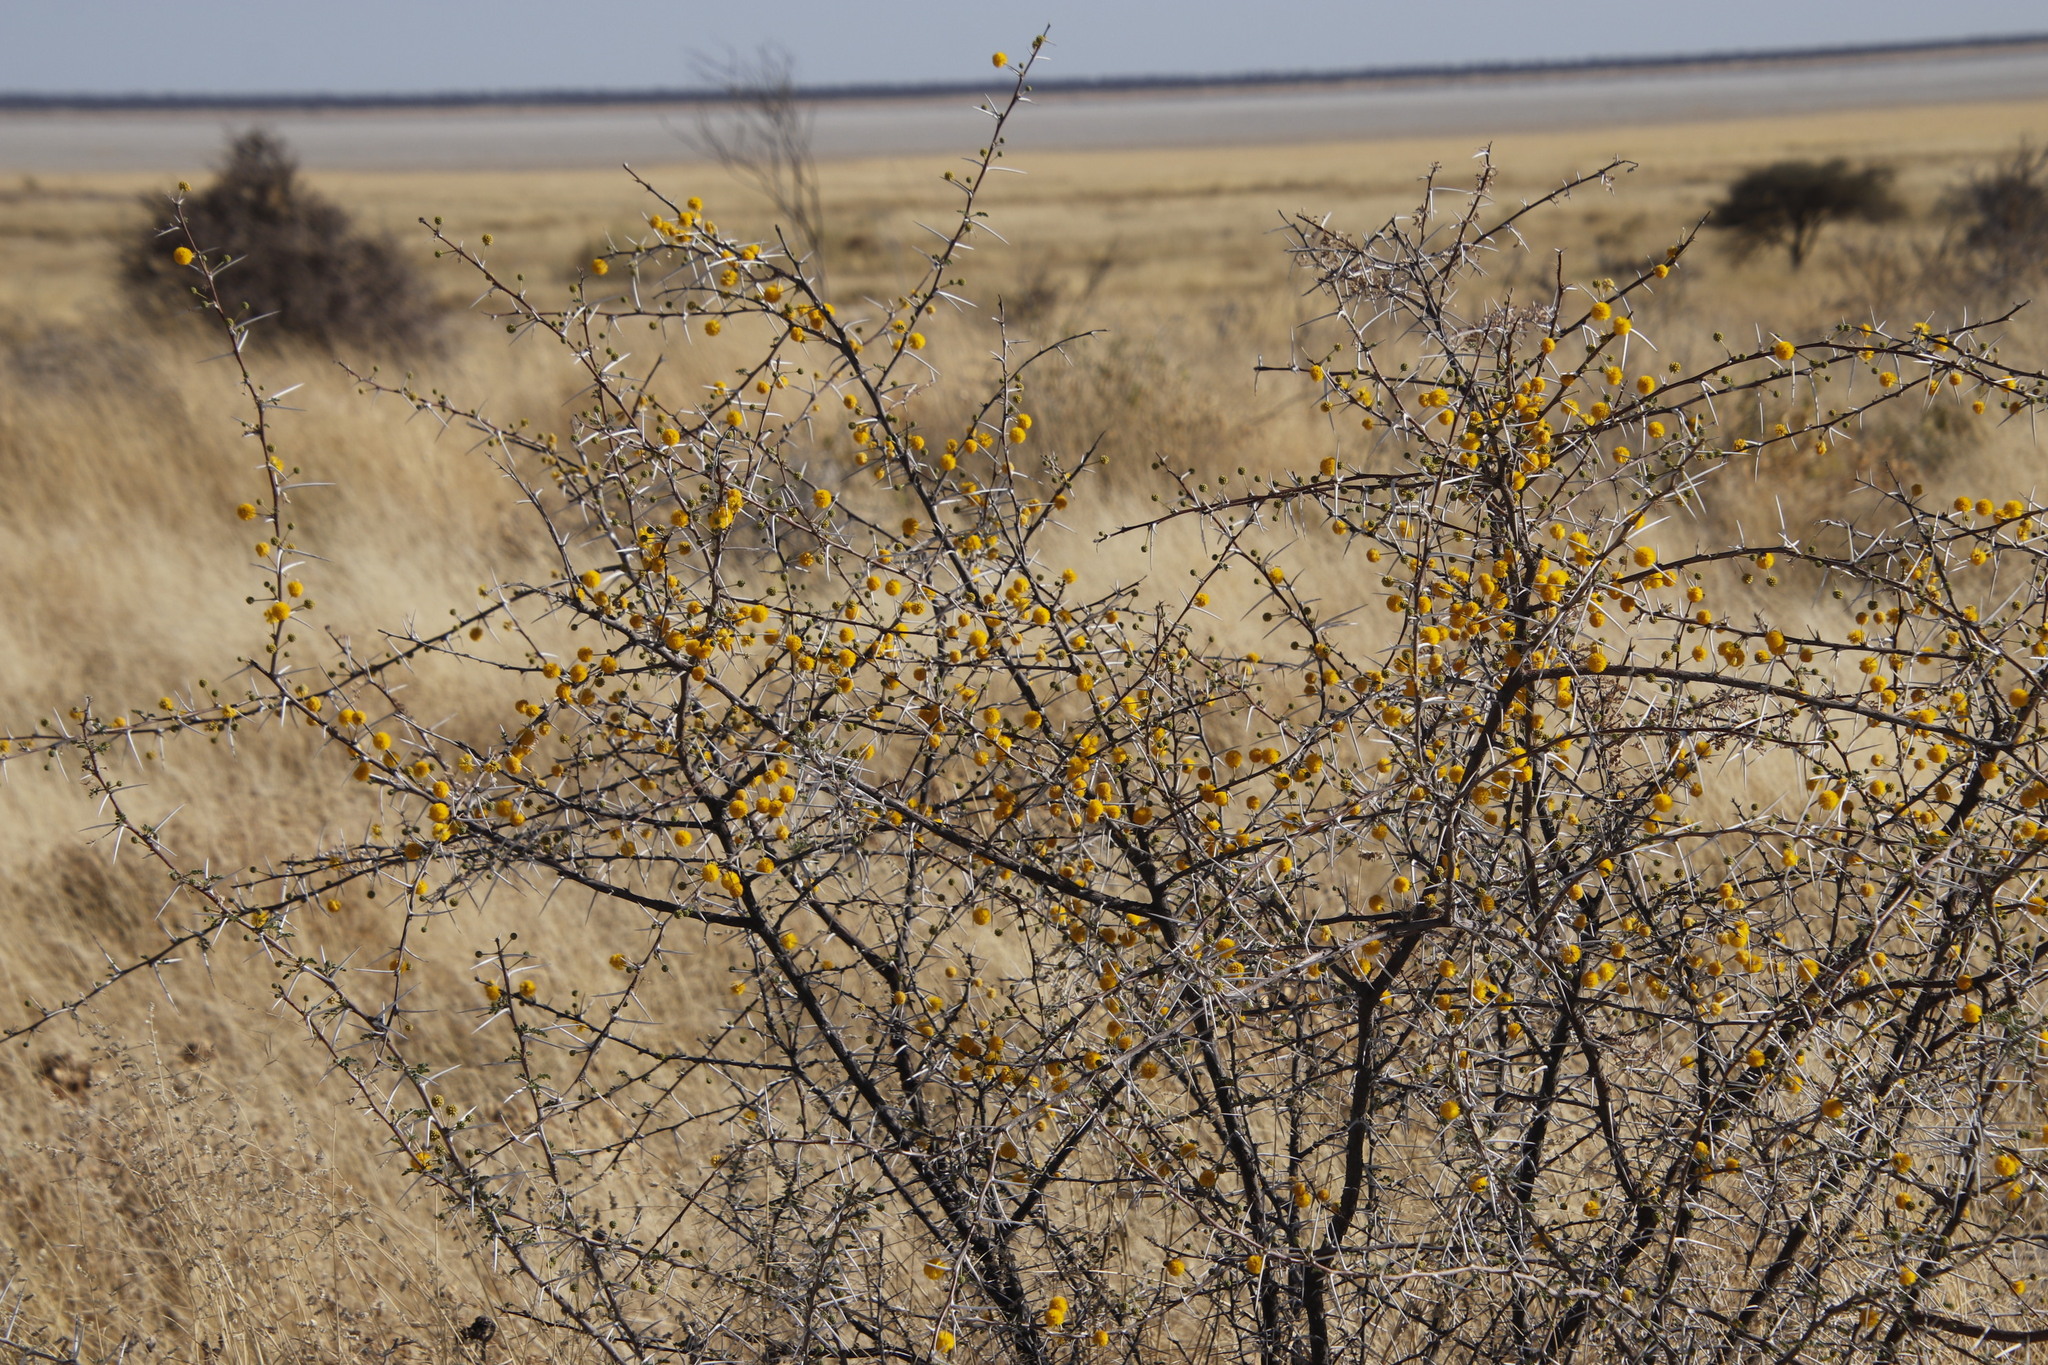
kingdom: Plantae
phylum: Tracheophyta
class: Magnoliopsida
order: Fabales
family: Fabaceae
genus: Vachellia
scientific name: Vachellia nebrownii
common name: Water acacia
